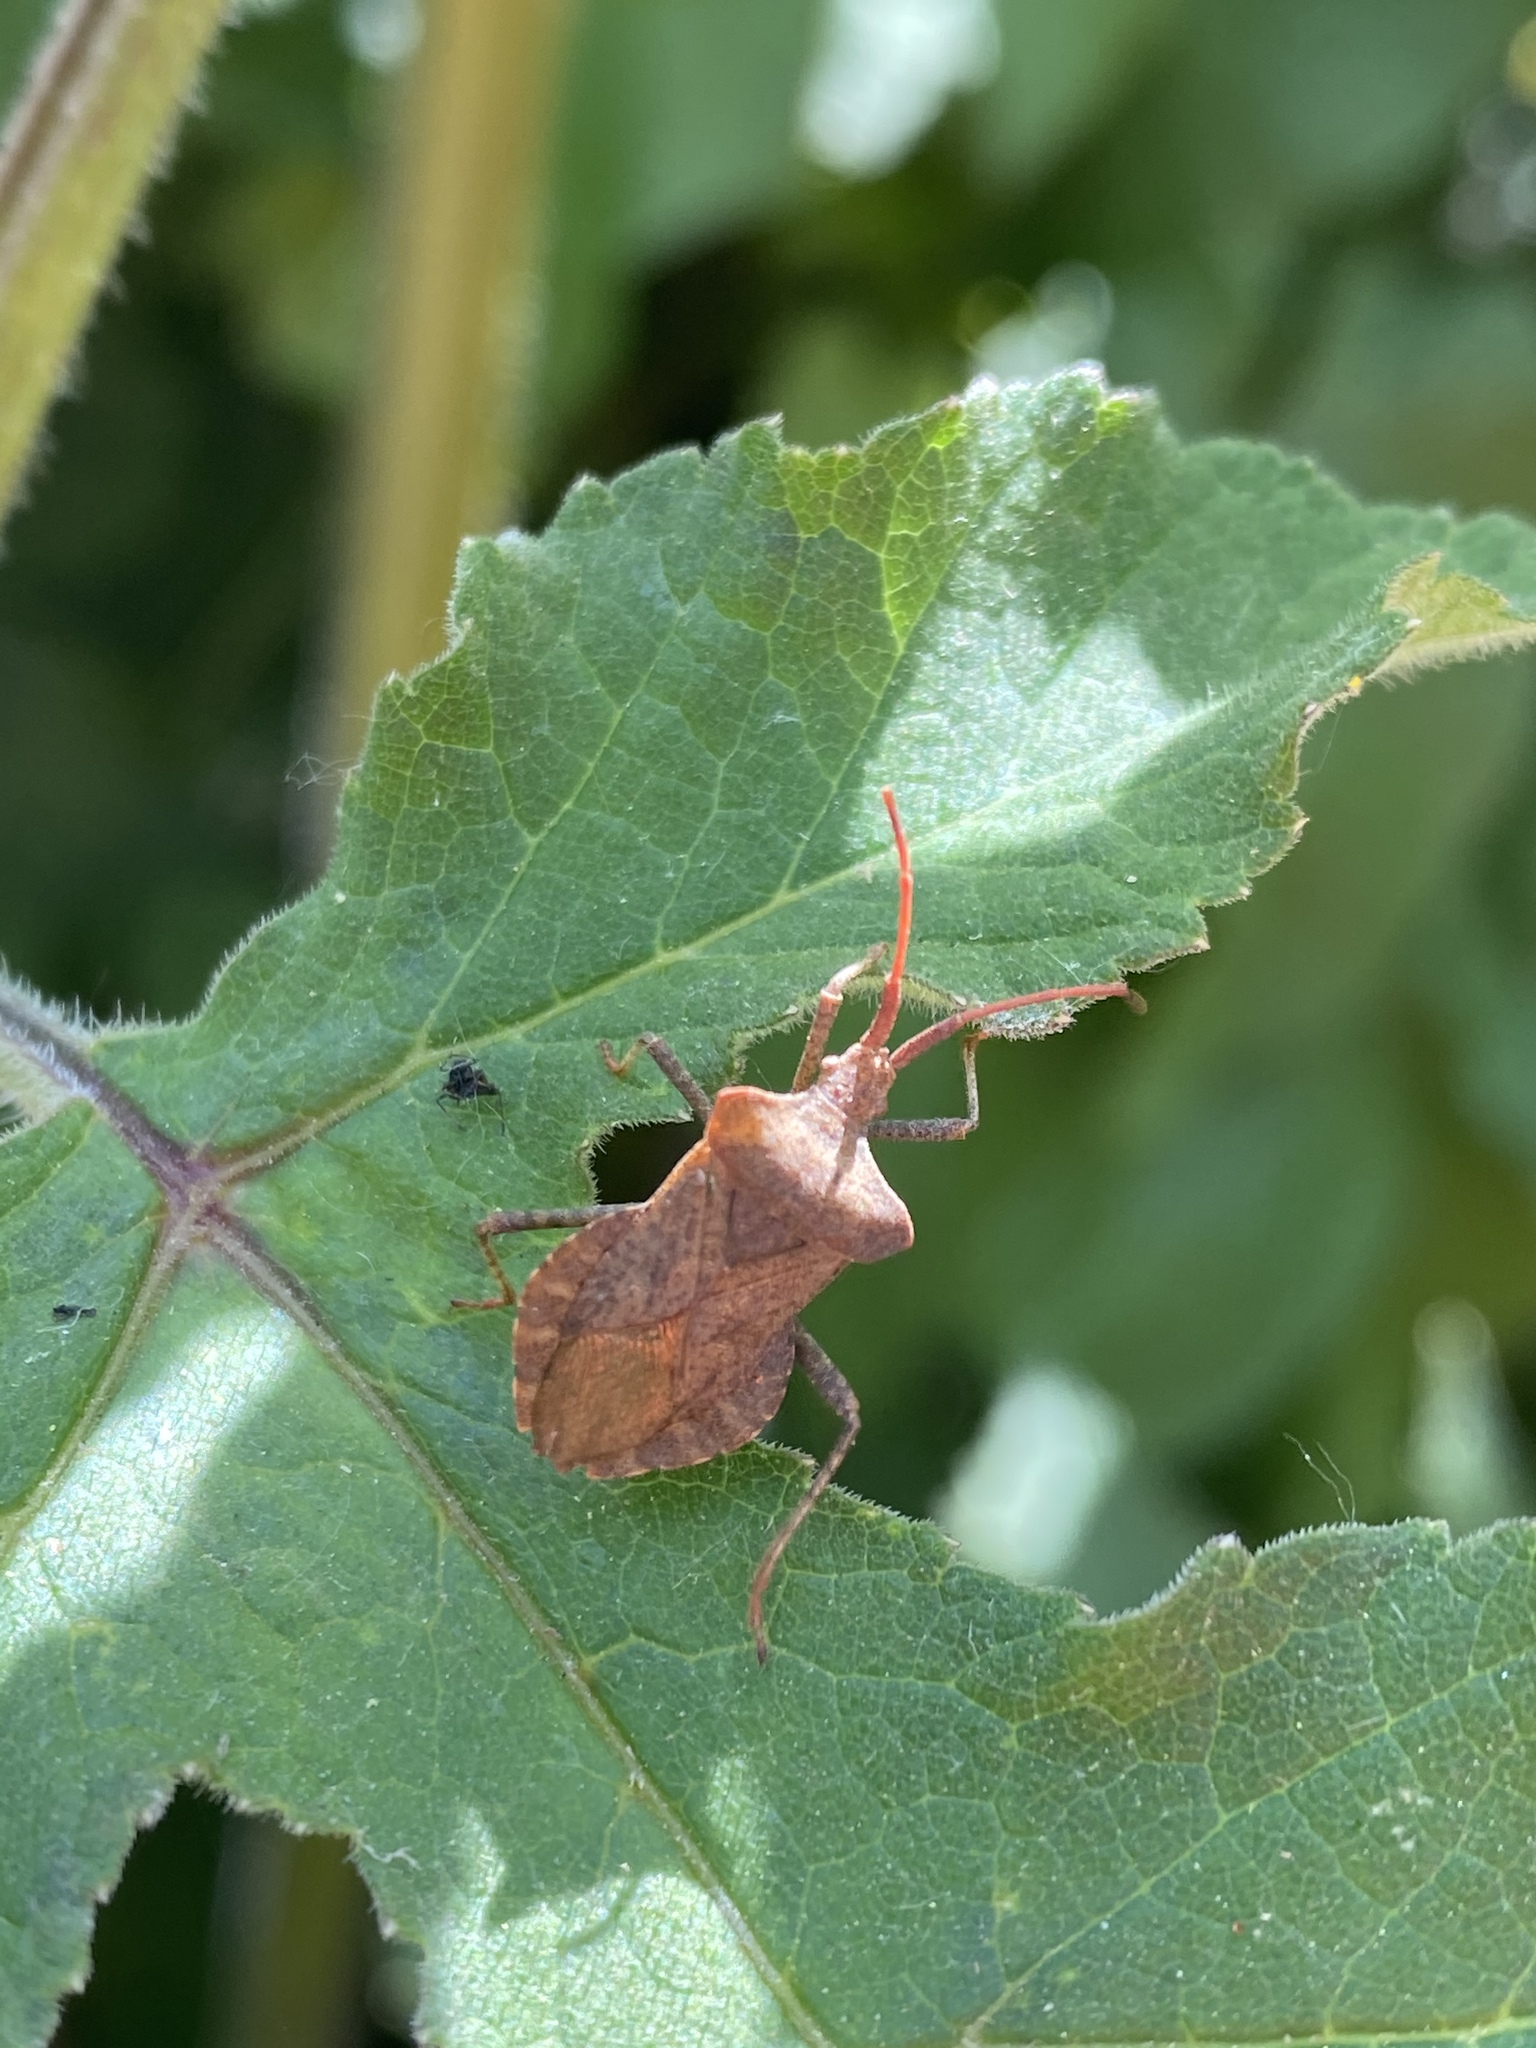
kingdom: Animalia
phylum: Arthropoda
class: Insecta
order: Hemiptera
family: Coreidae
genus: Coreus
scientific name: Coreus marginatus
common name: Dock bug
